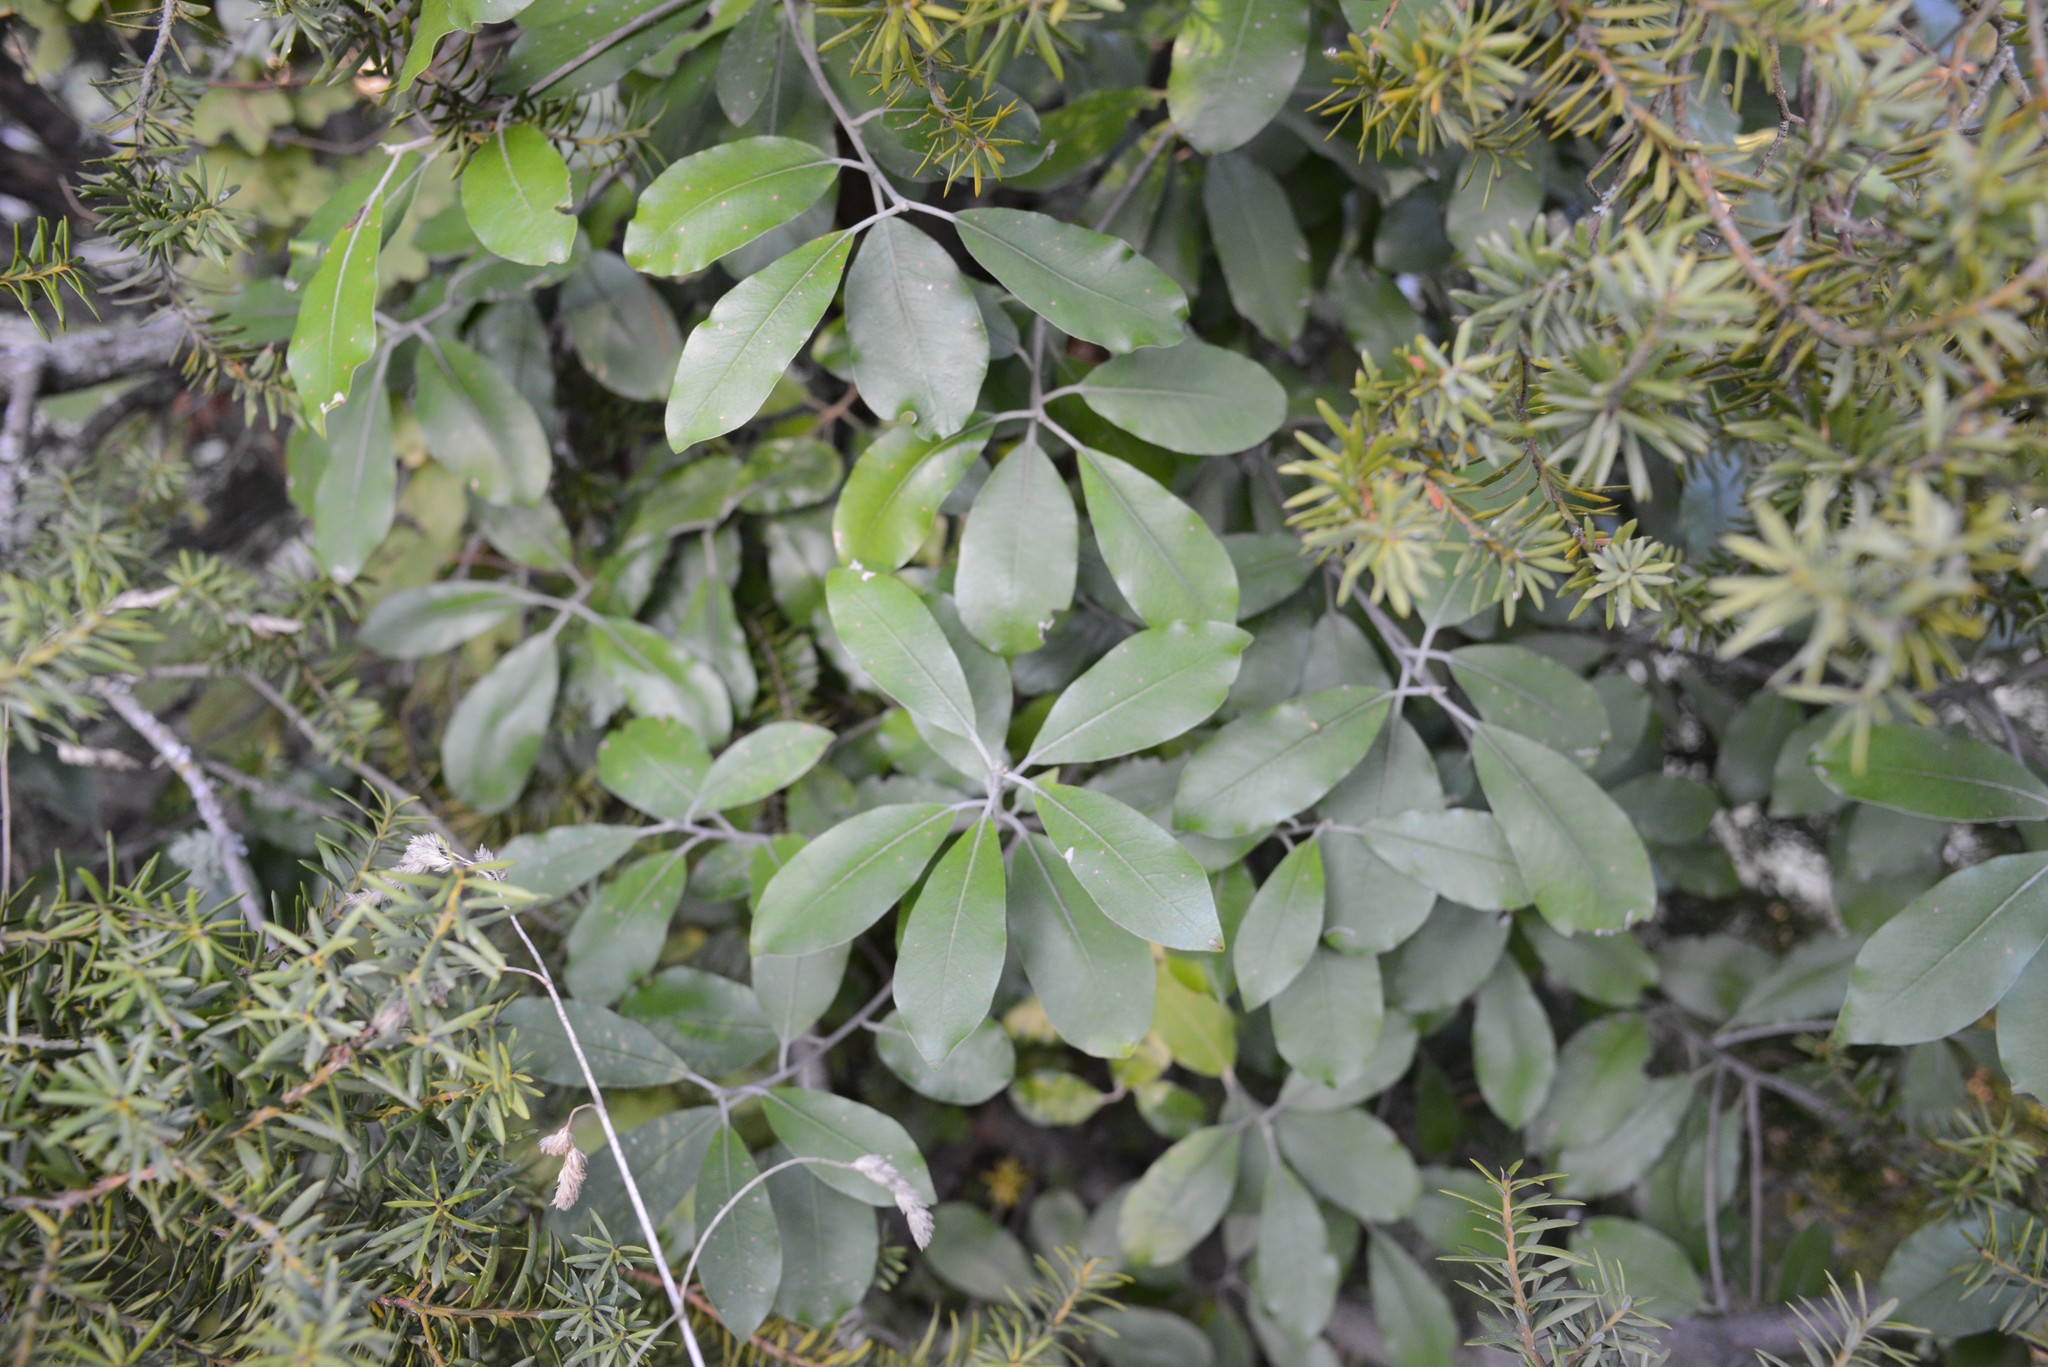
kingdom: Plantae
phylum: Tracheophyta
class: Magnoliopsida
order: Apiales
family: Pittosporaceae
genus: Pittosporum
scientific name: Pittosporum ralphii
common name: Ralph's desertwillow
